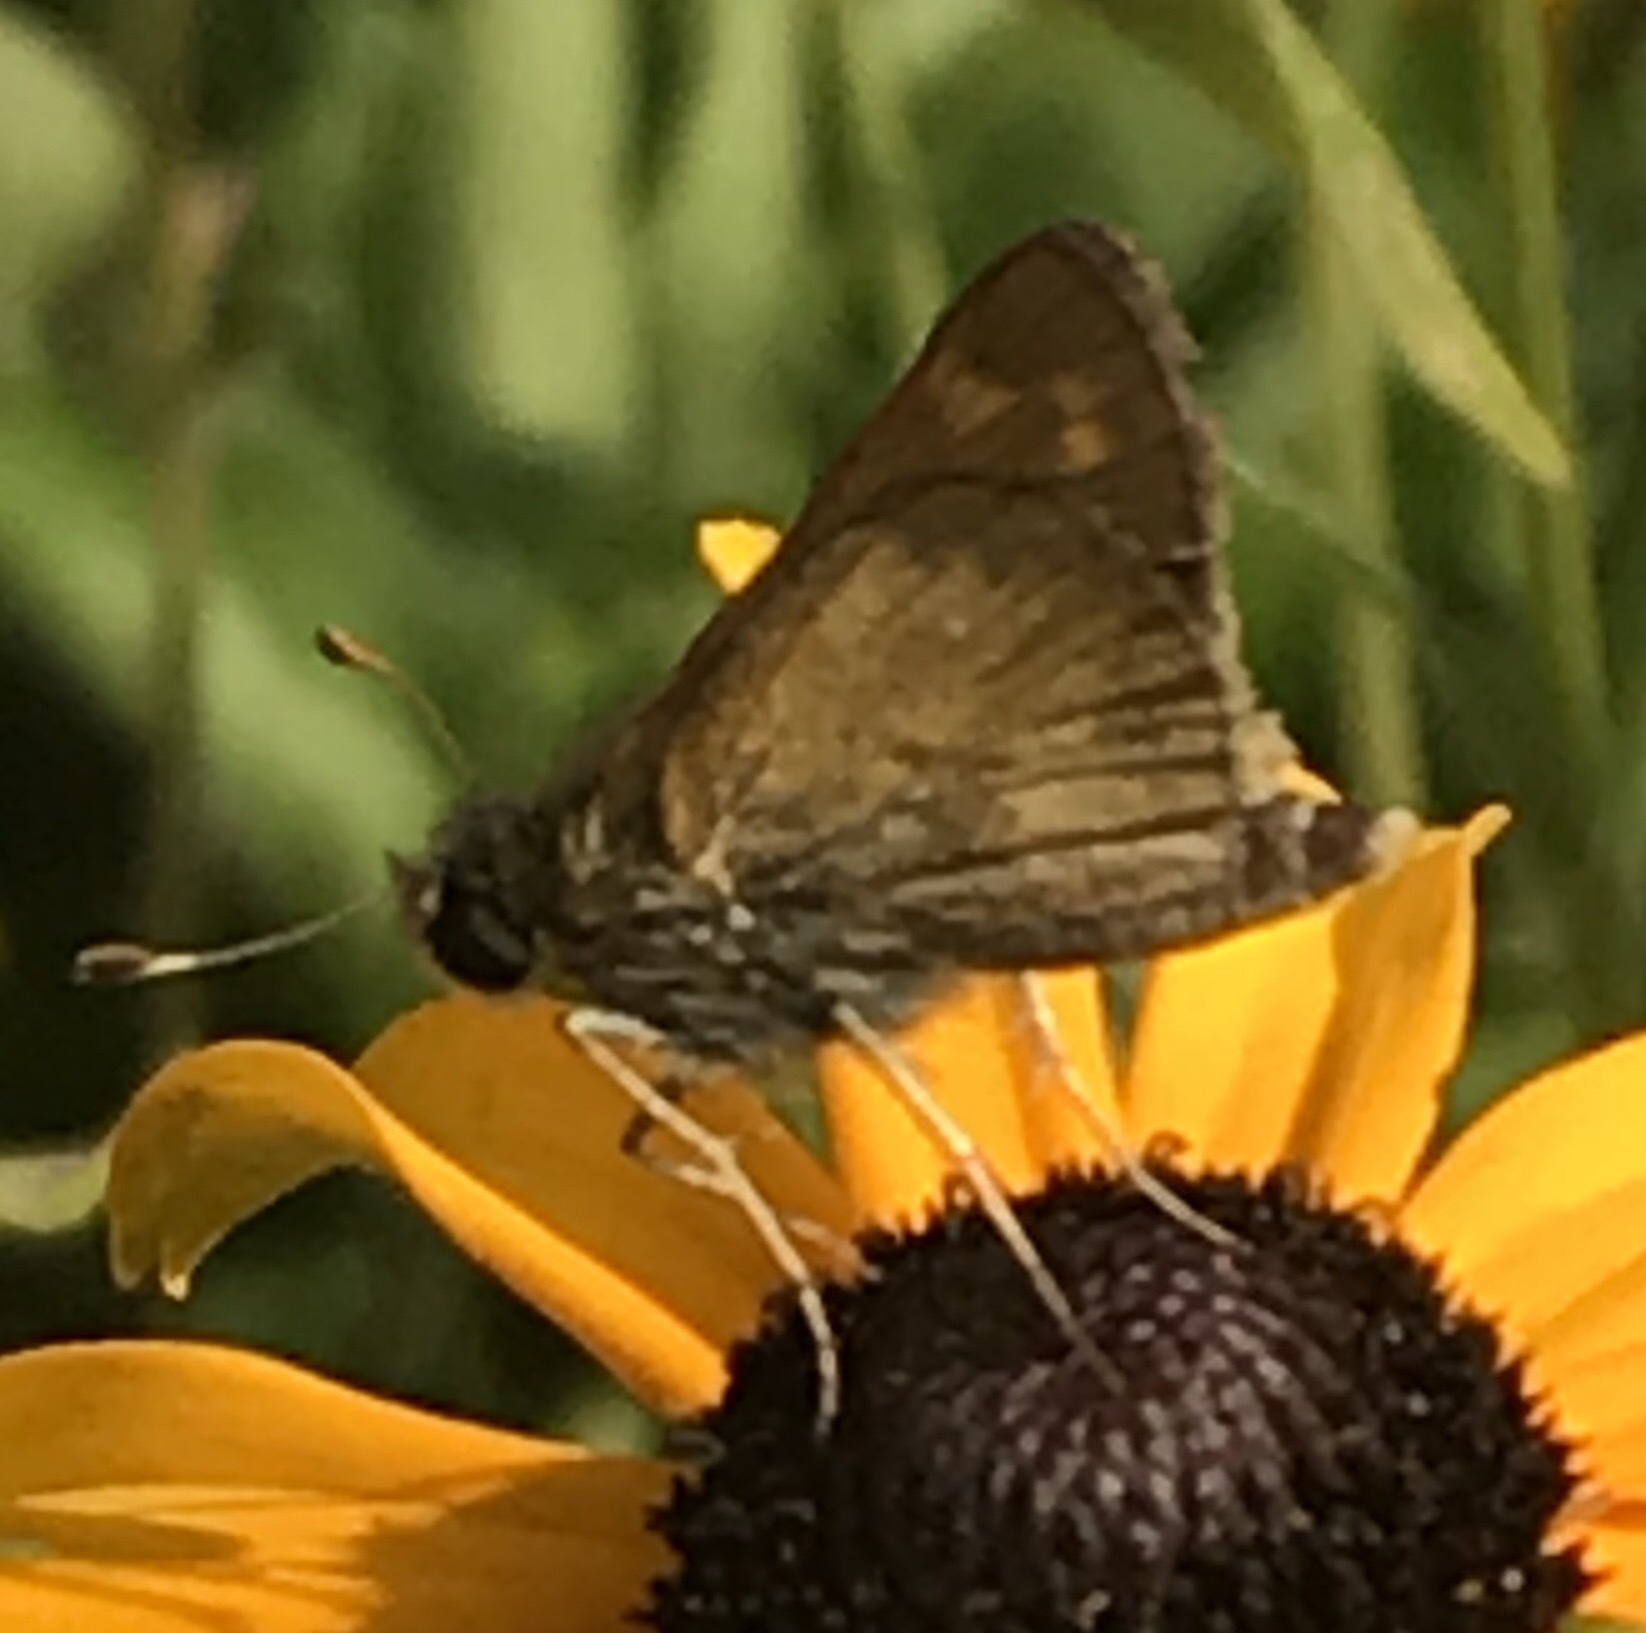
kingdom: Animalia
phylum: Arthropoda
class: Insecta
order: Lepidoptera
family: Hesperiidae
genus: Atalopedes
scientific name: Atalopedes
